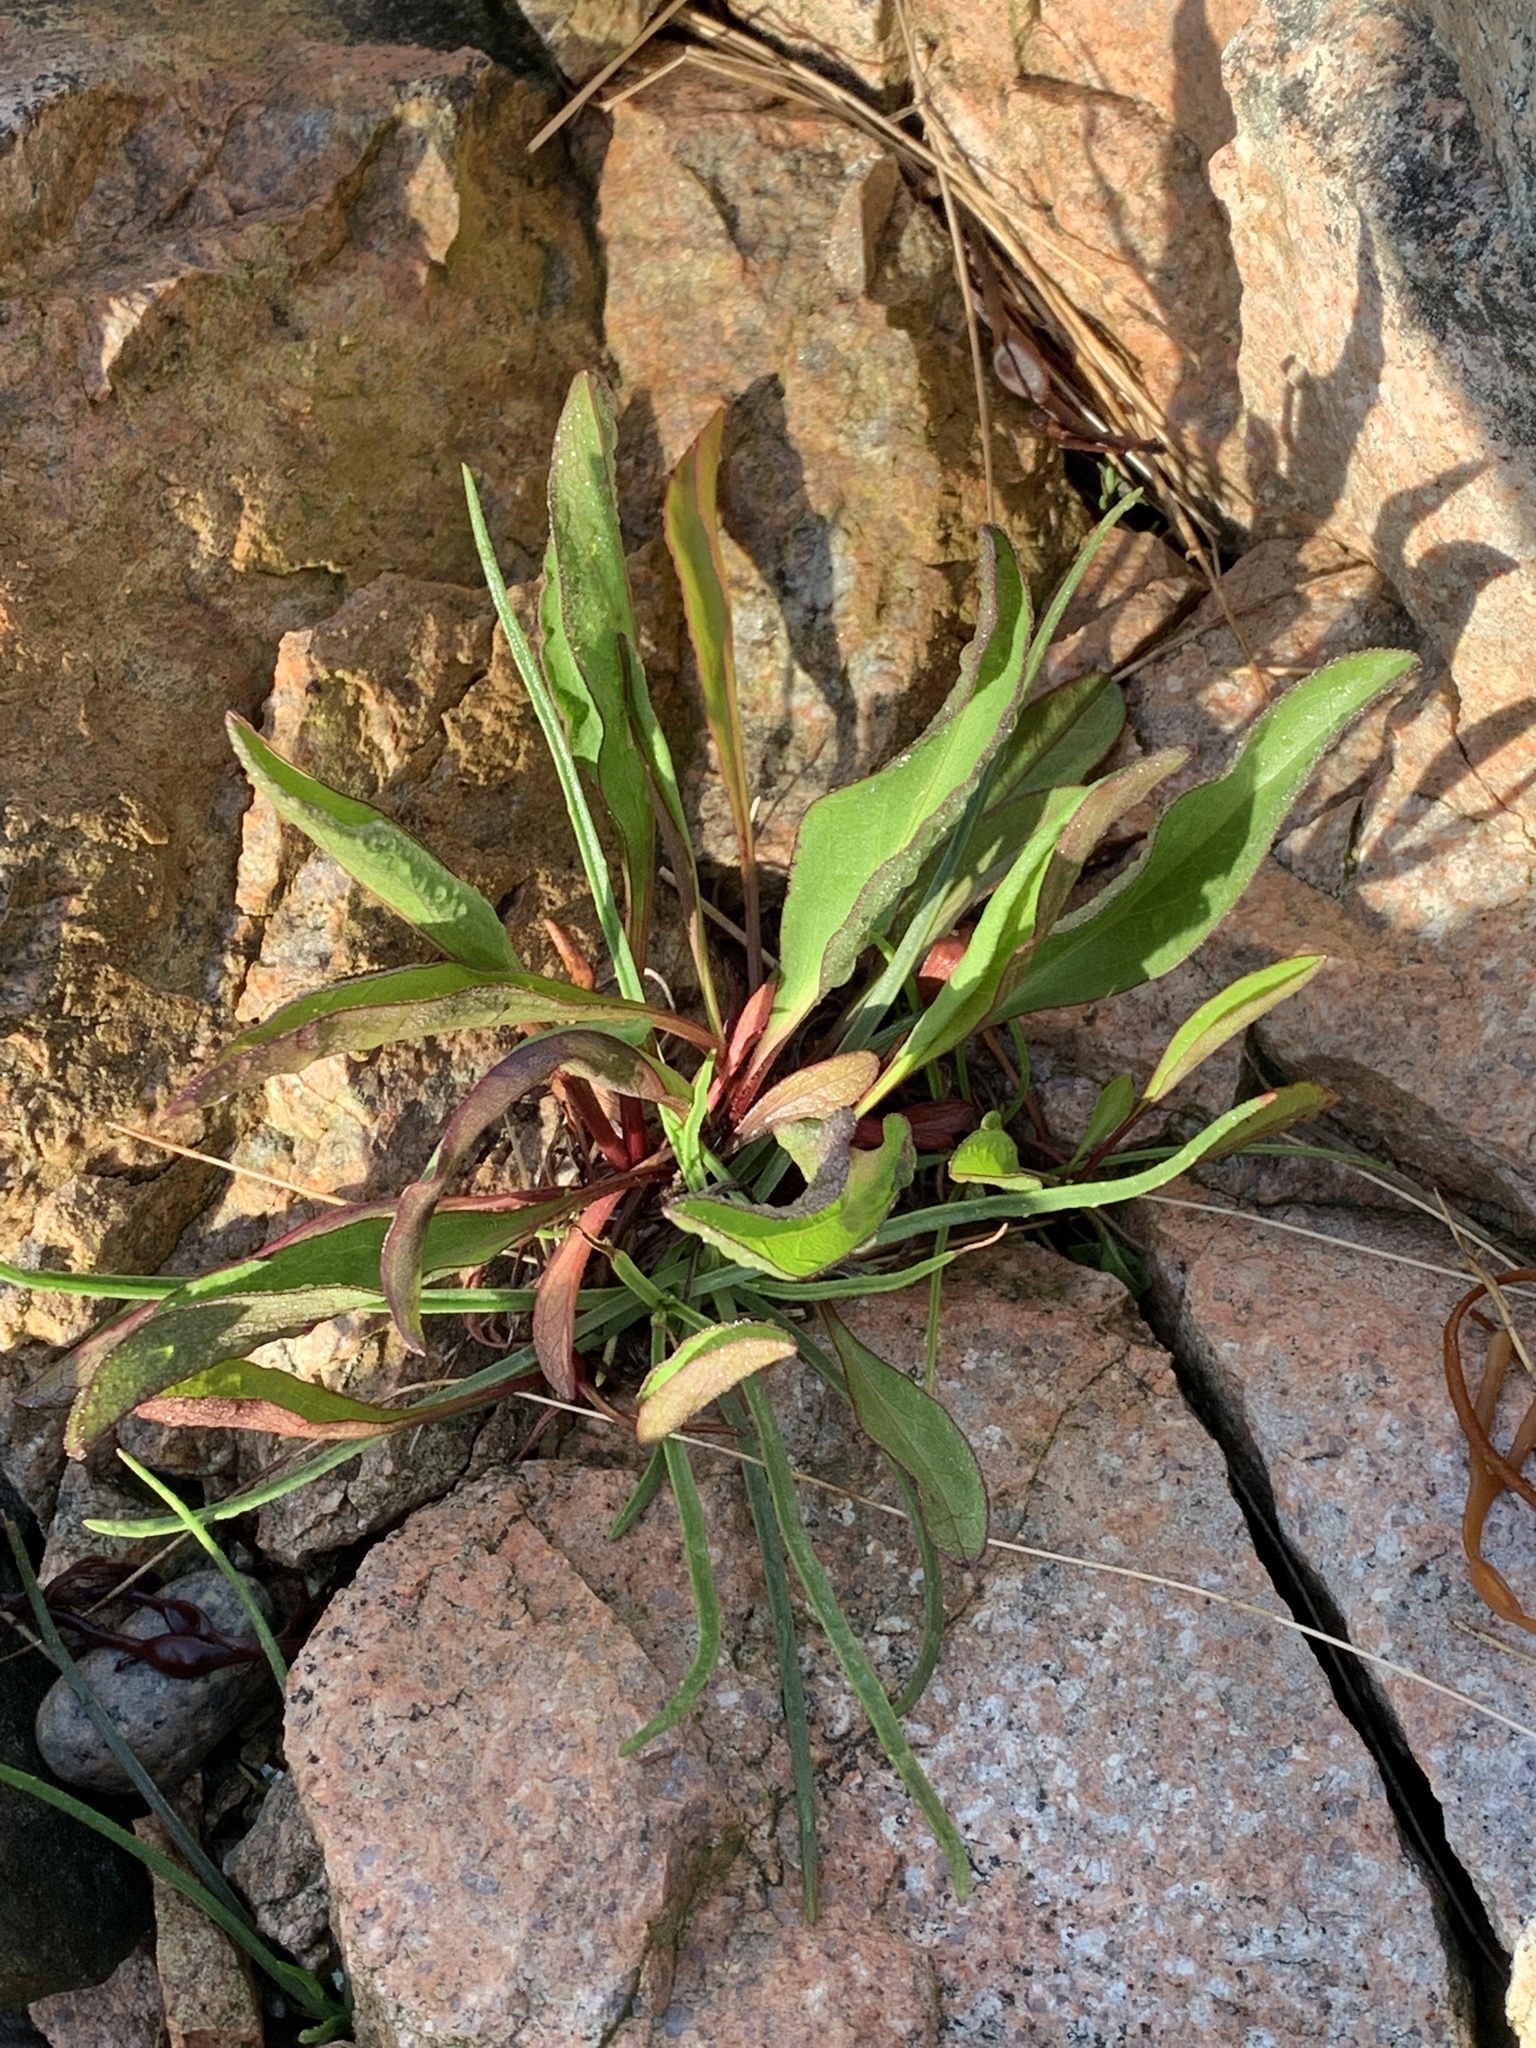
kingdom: Plantae
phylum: Tracheophyta
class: Magnoliopsida
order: Caryophyllales
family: Plumbaginaceae
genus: Limonium
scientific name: Limonium carolinianum
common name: Carolina sea lavender
